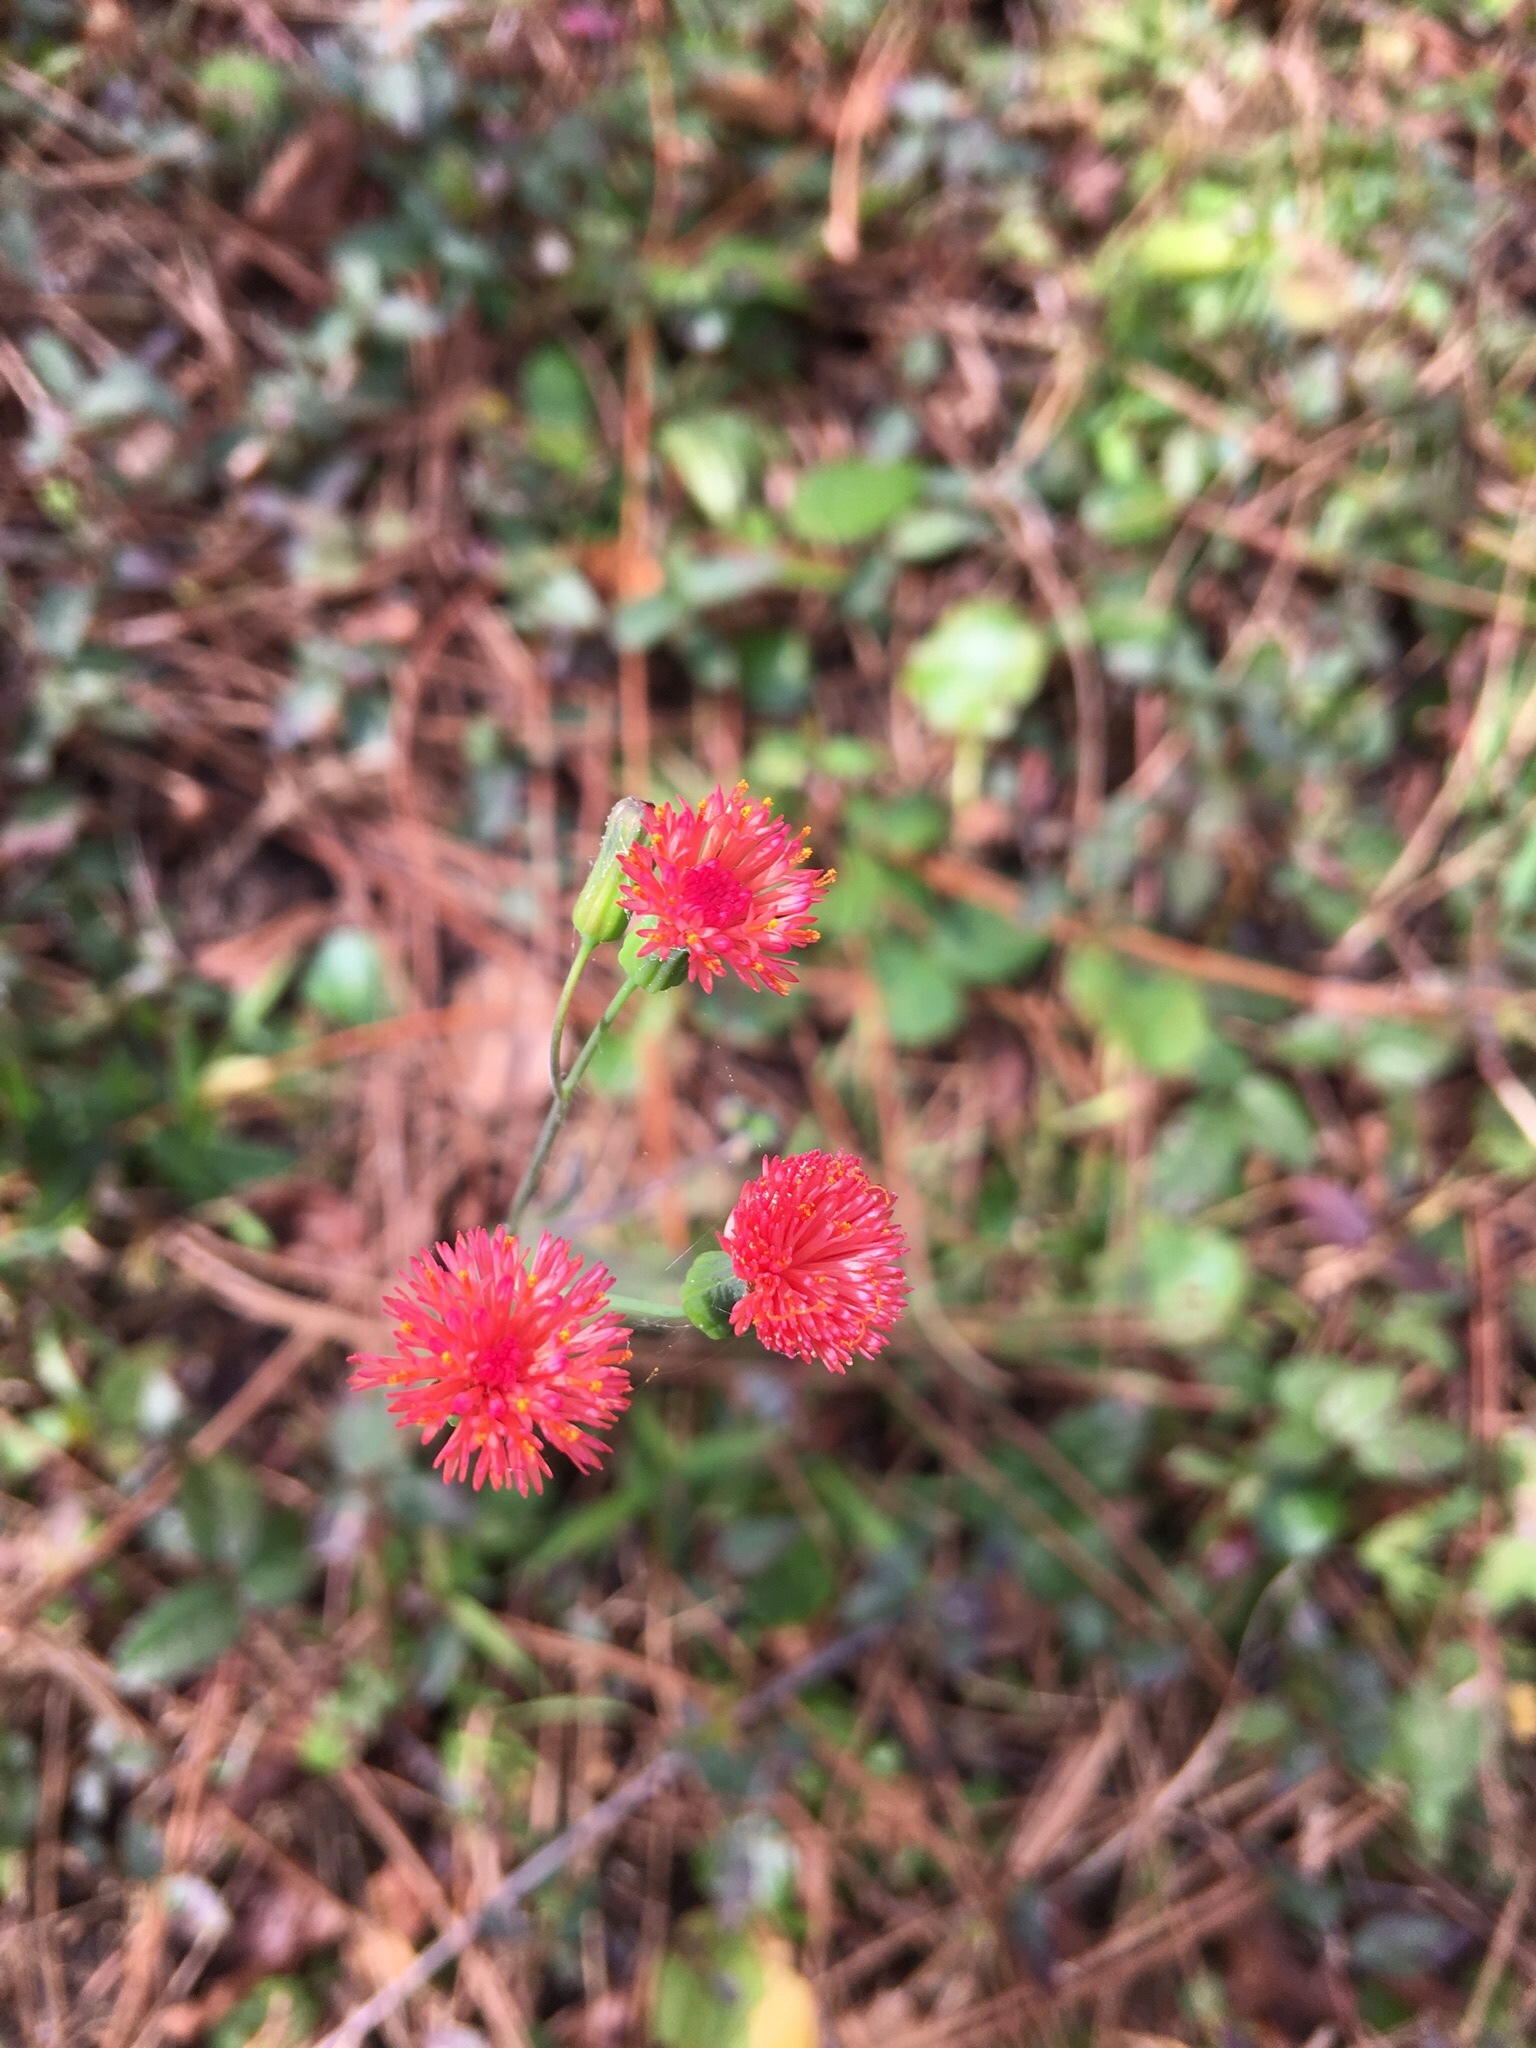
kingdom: Plantae
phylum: Tracheophyta
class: Magnoliopsida
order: Asterales
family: Asteraceae
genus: Emilia
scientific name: Emilia fosbergii
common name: Florida tasselflower
